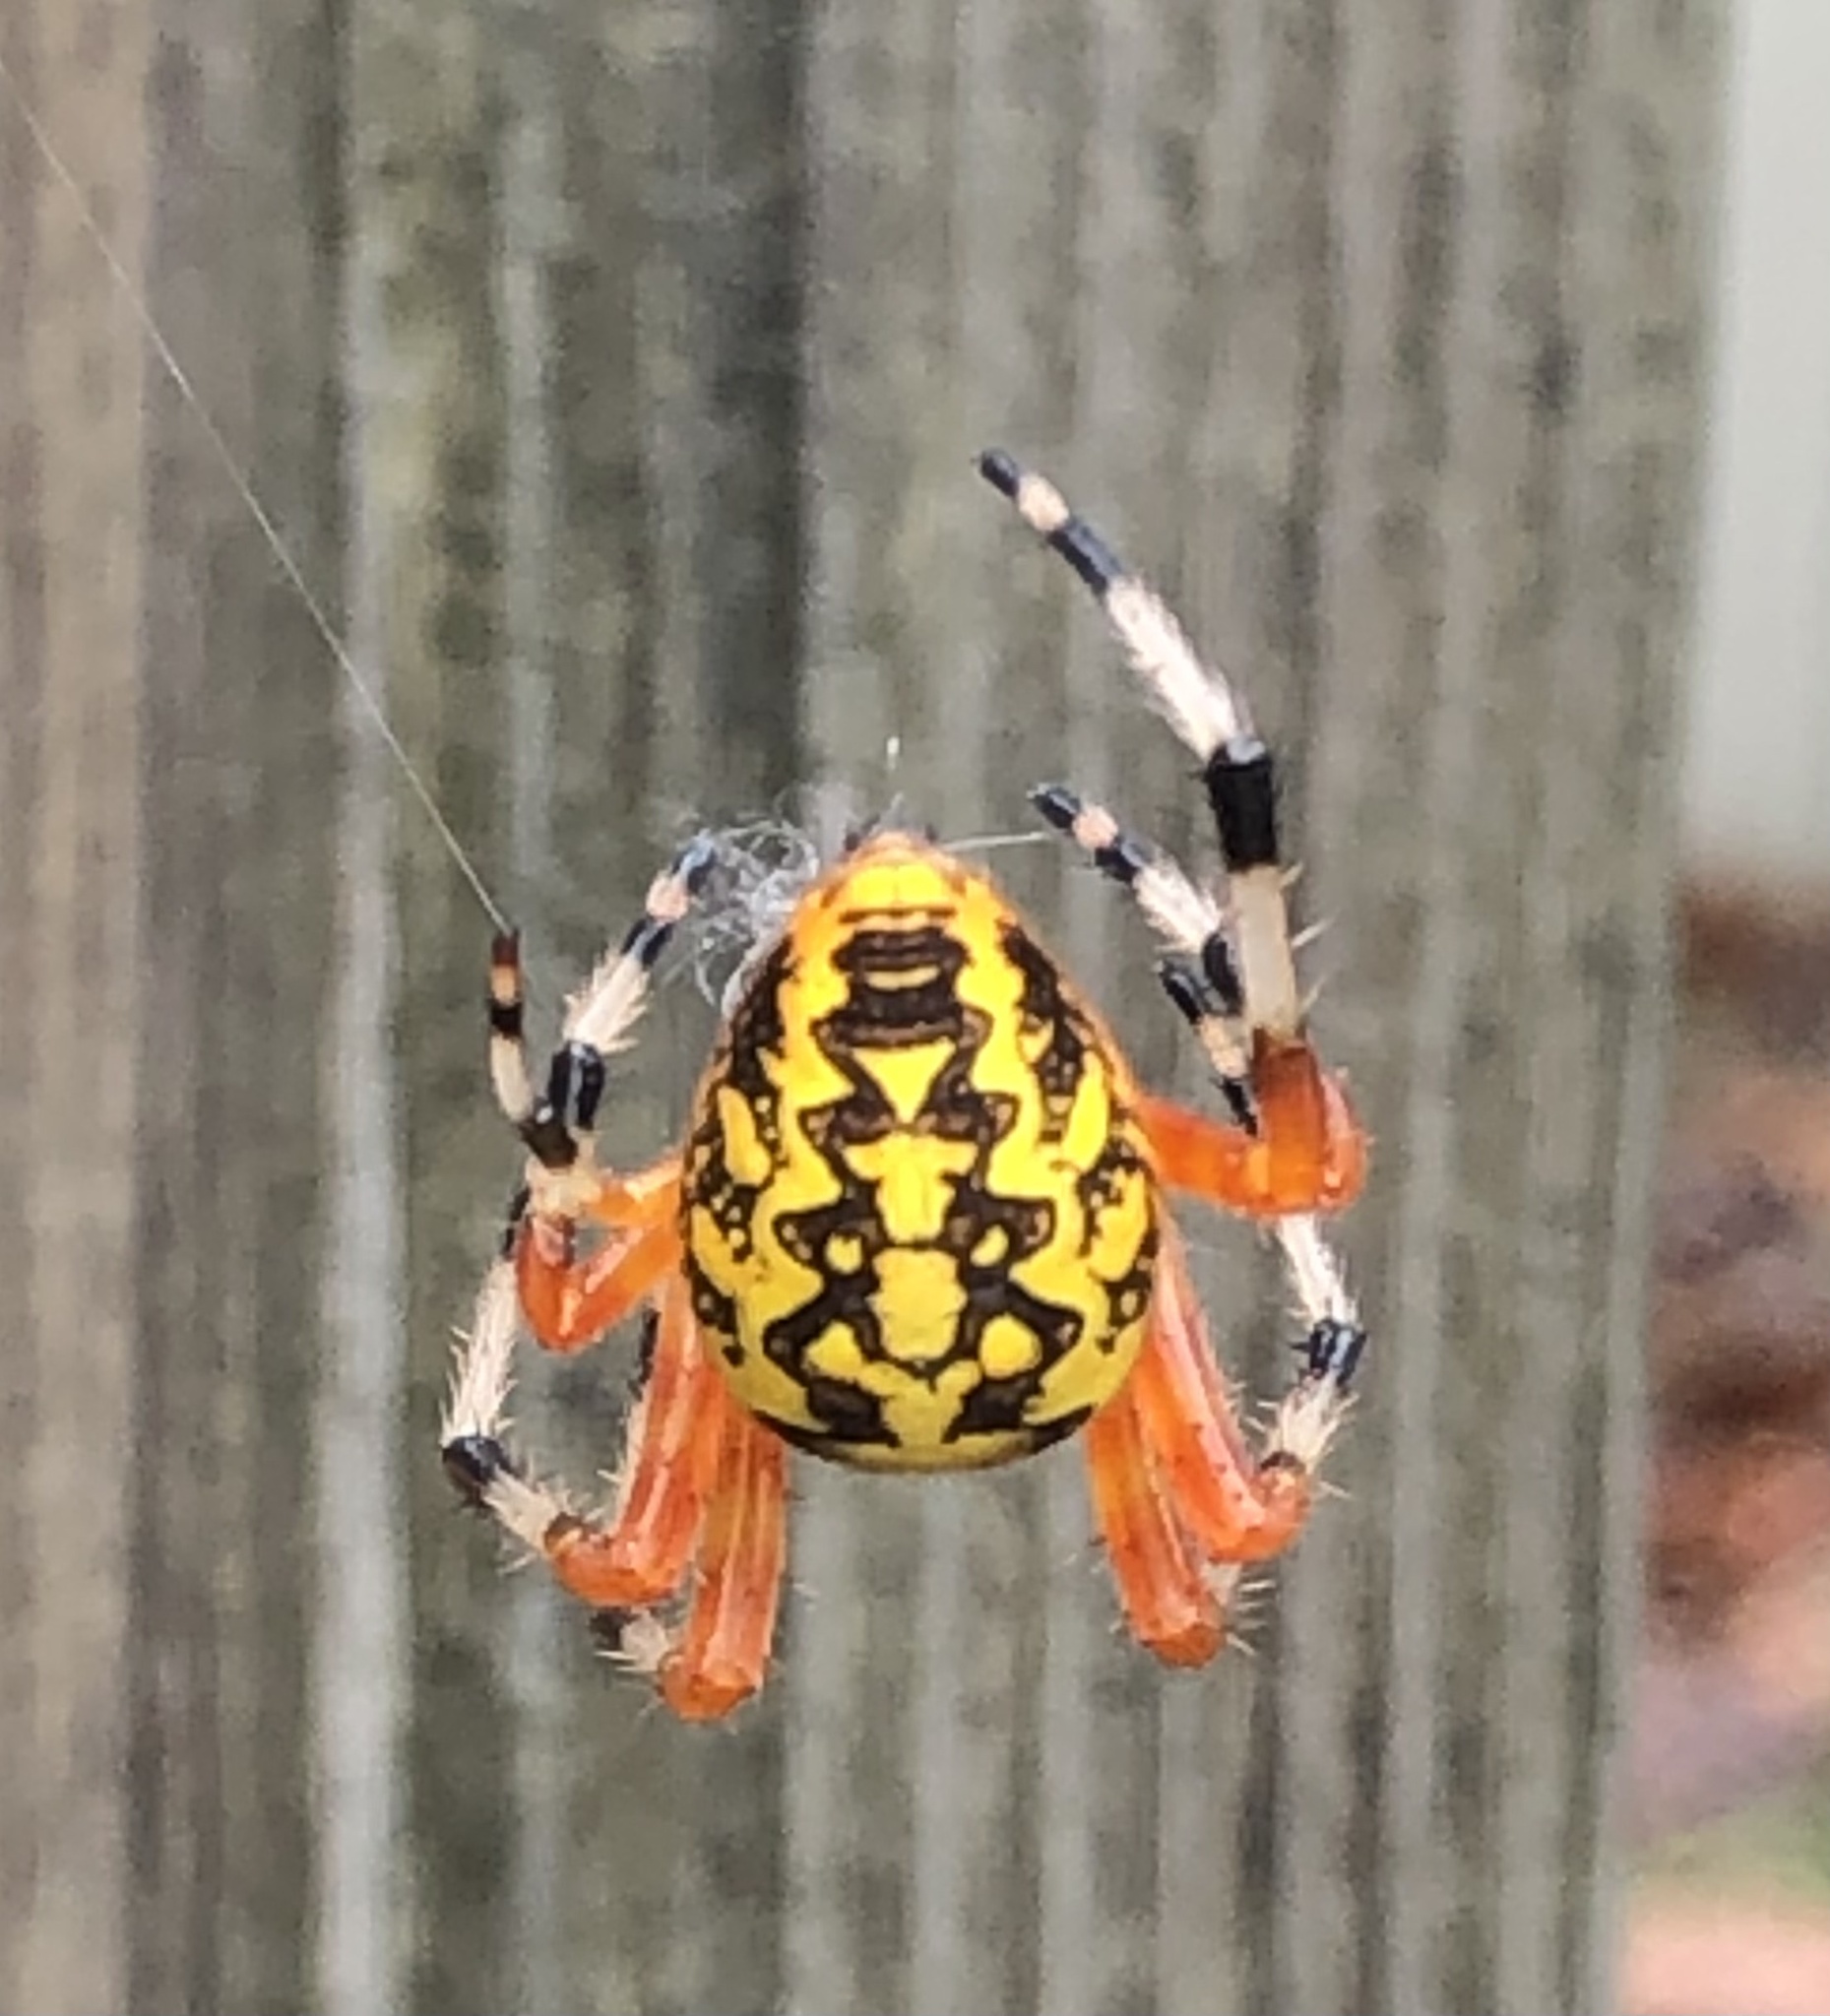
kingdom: Animalia
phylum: Arthropoda
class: Arachnida
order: Araneae
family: Araneidae
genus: Araneus
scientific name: Araneus marmoreus
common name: Marbled orbweaver
